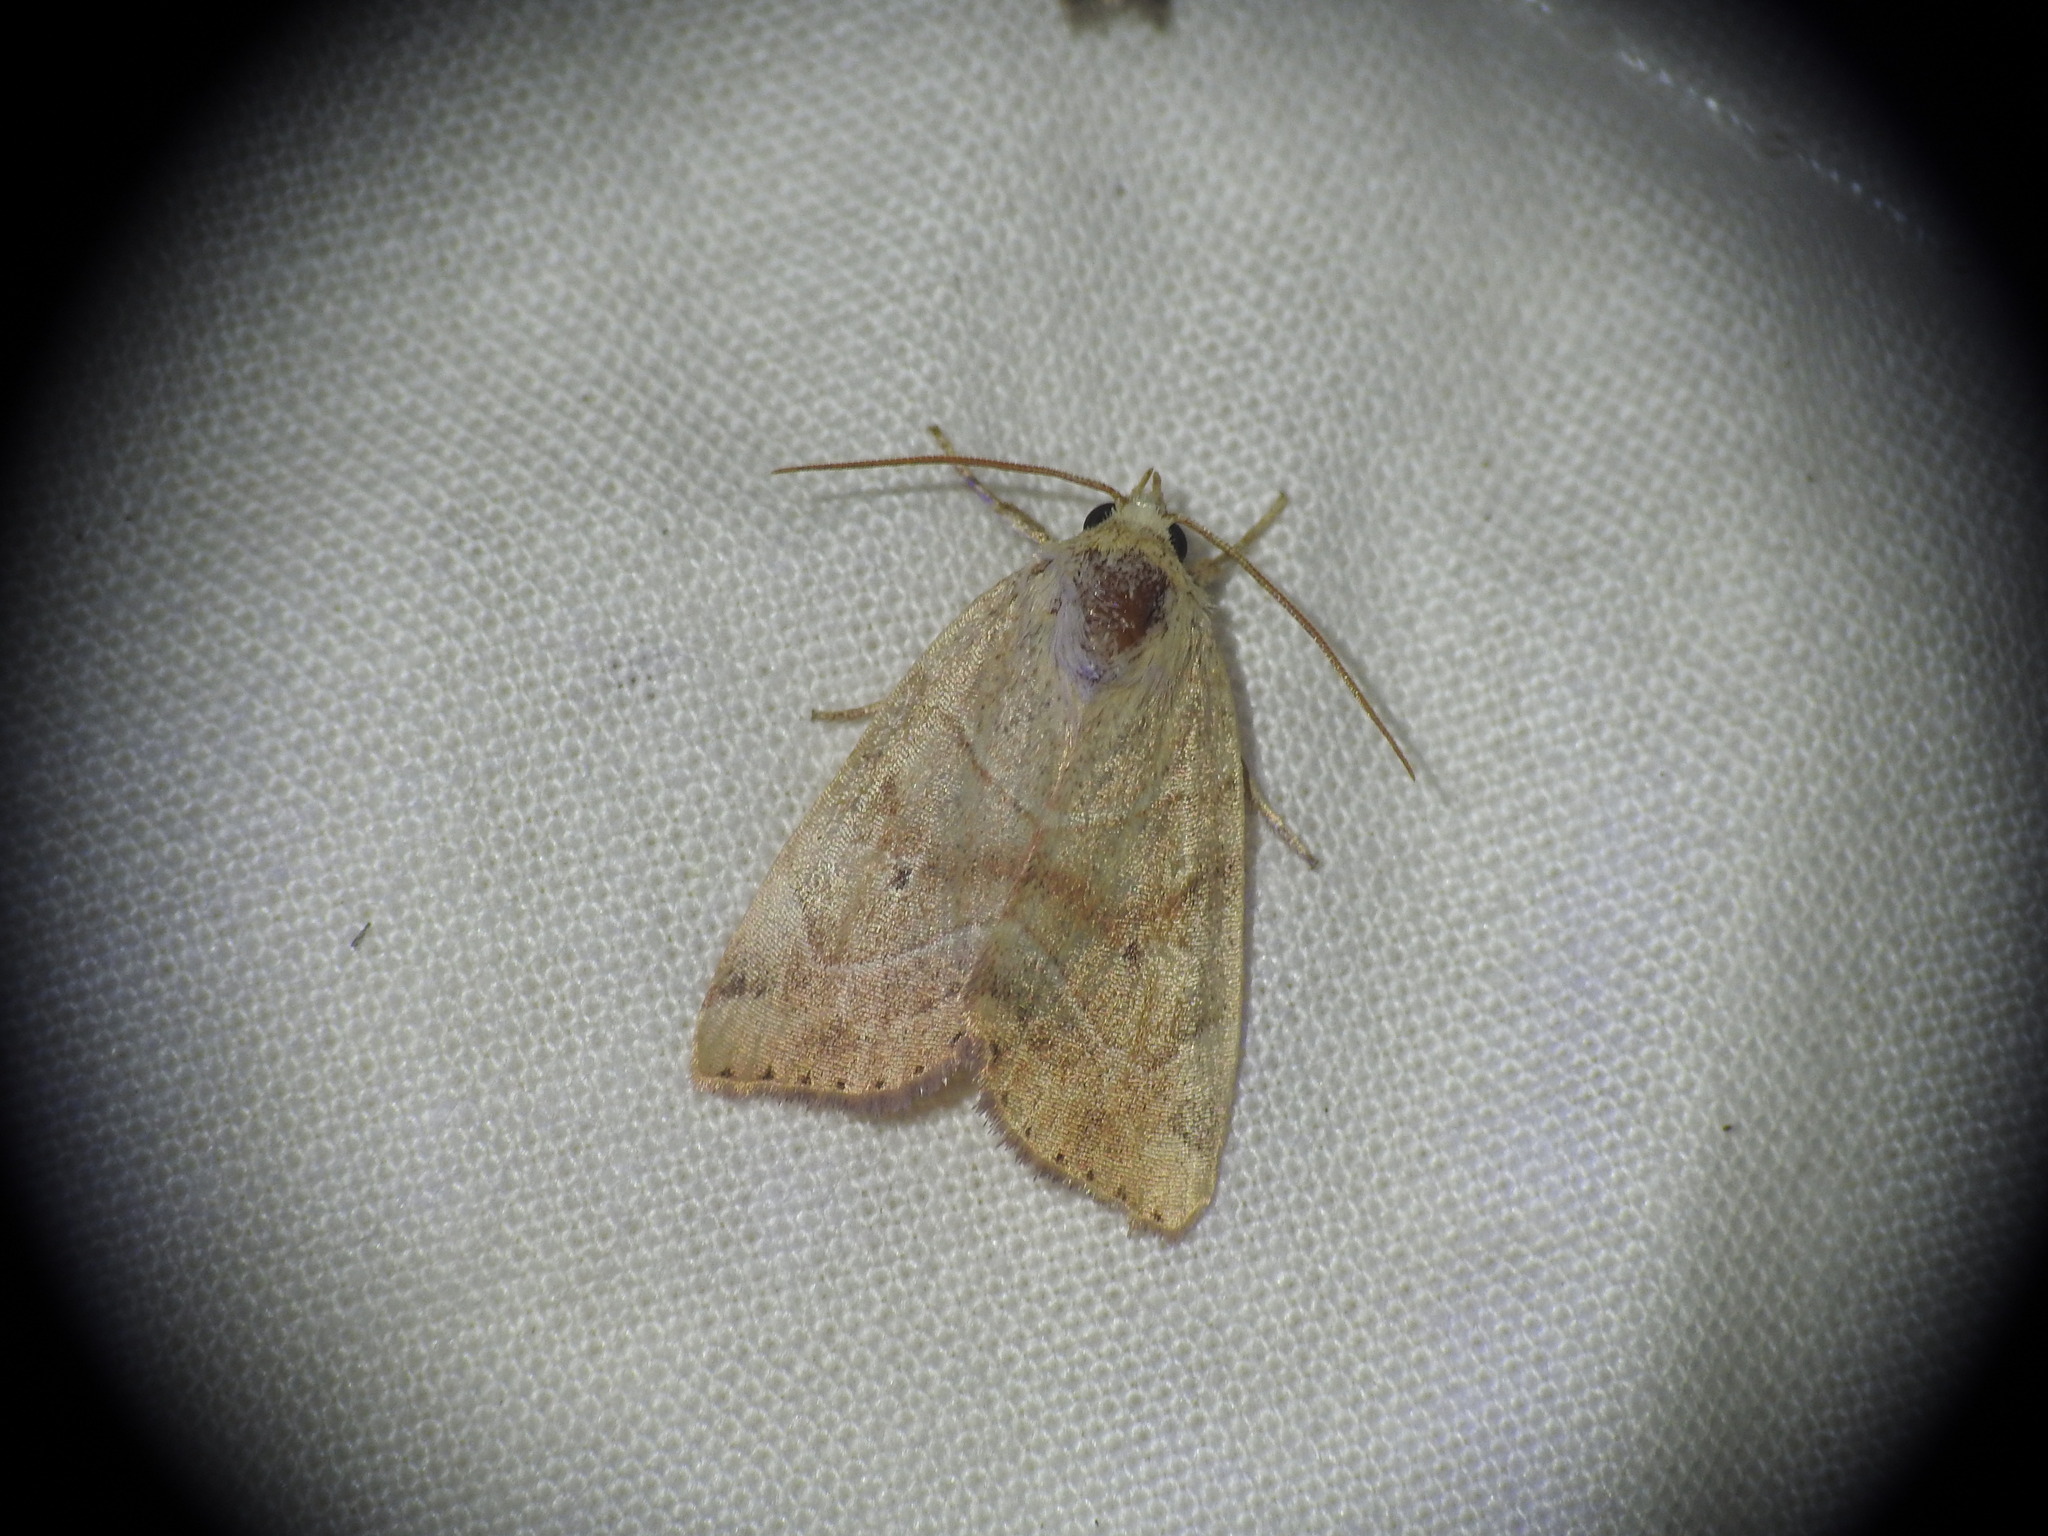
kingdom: Animalia
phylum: Arthropoda
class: Insecta
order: Lepidoptera
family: Noctuidae
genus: Cosmia
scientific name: Cosmia trapezina
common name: Dun-bar
